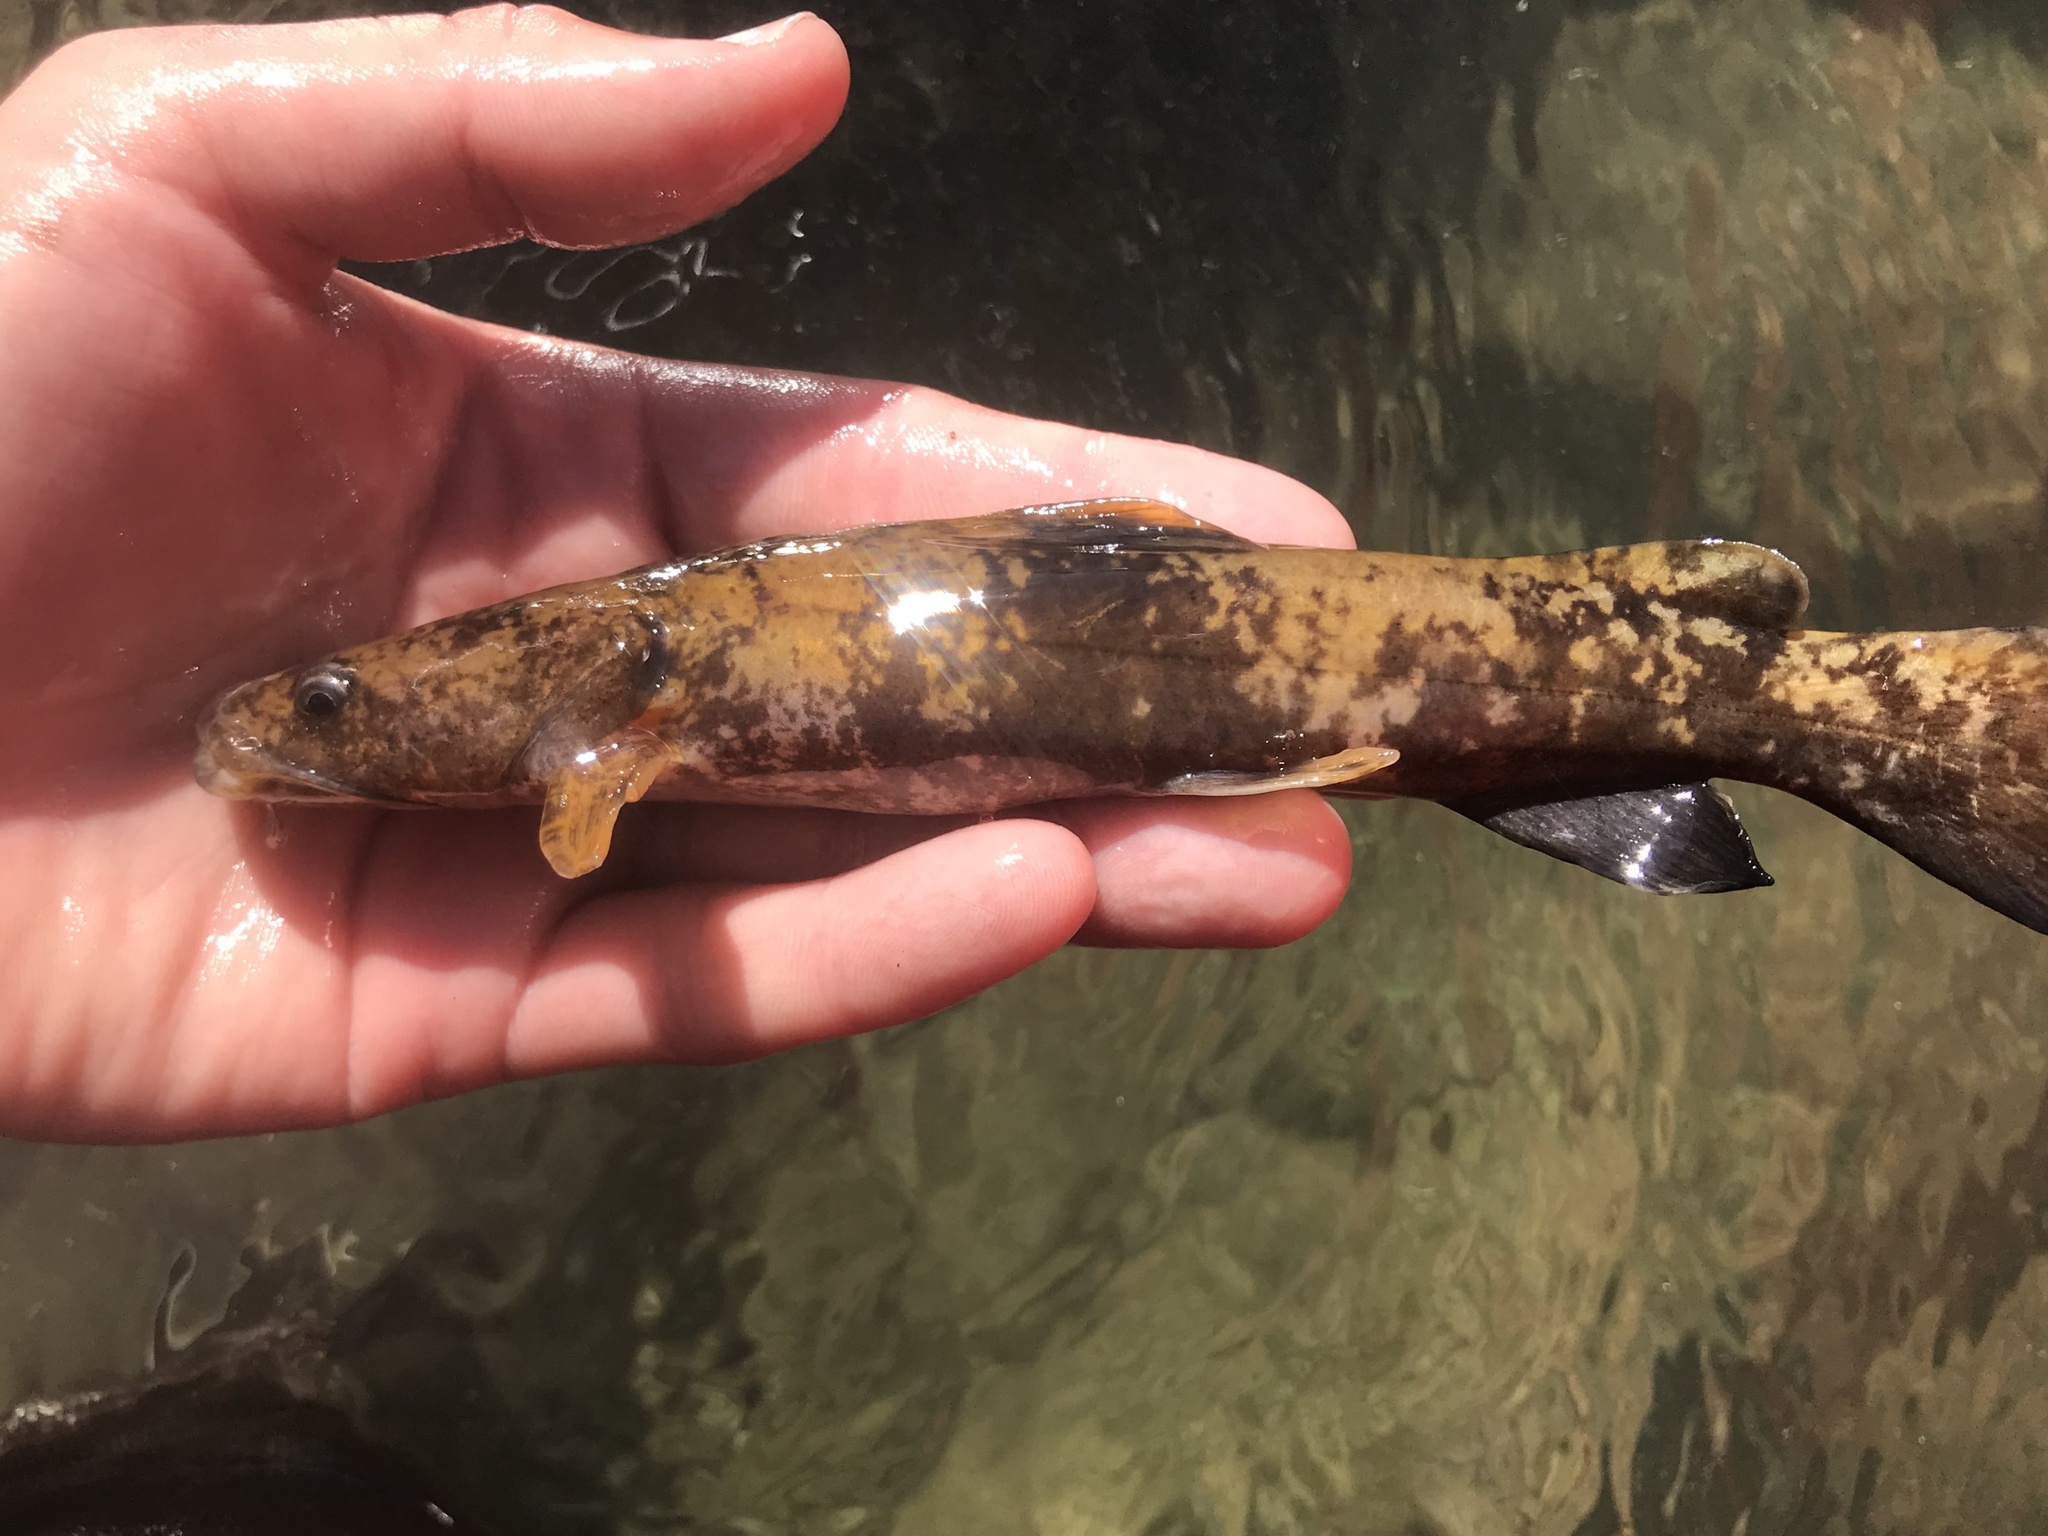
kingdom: Animalia
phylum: Chordata
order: Siluriformes
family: Ictaluridae
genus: Pylodictis
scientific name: Pylodictis olivaris
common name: Flathead catfish
